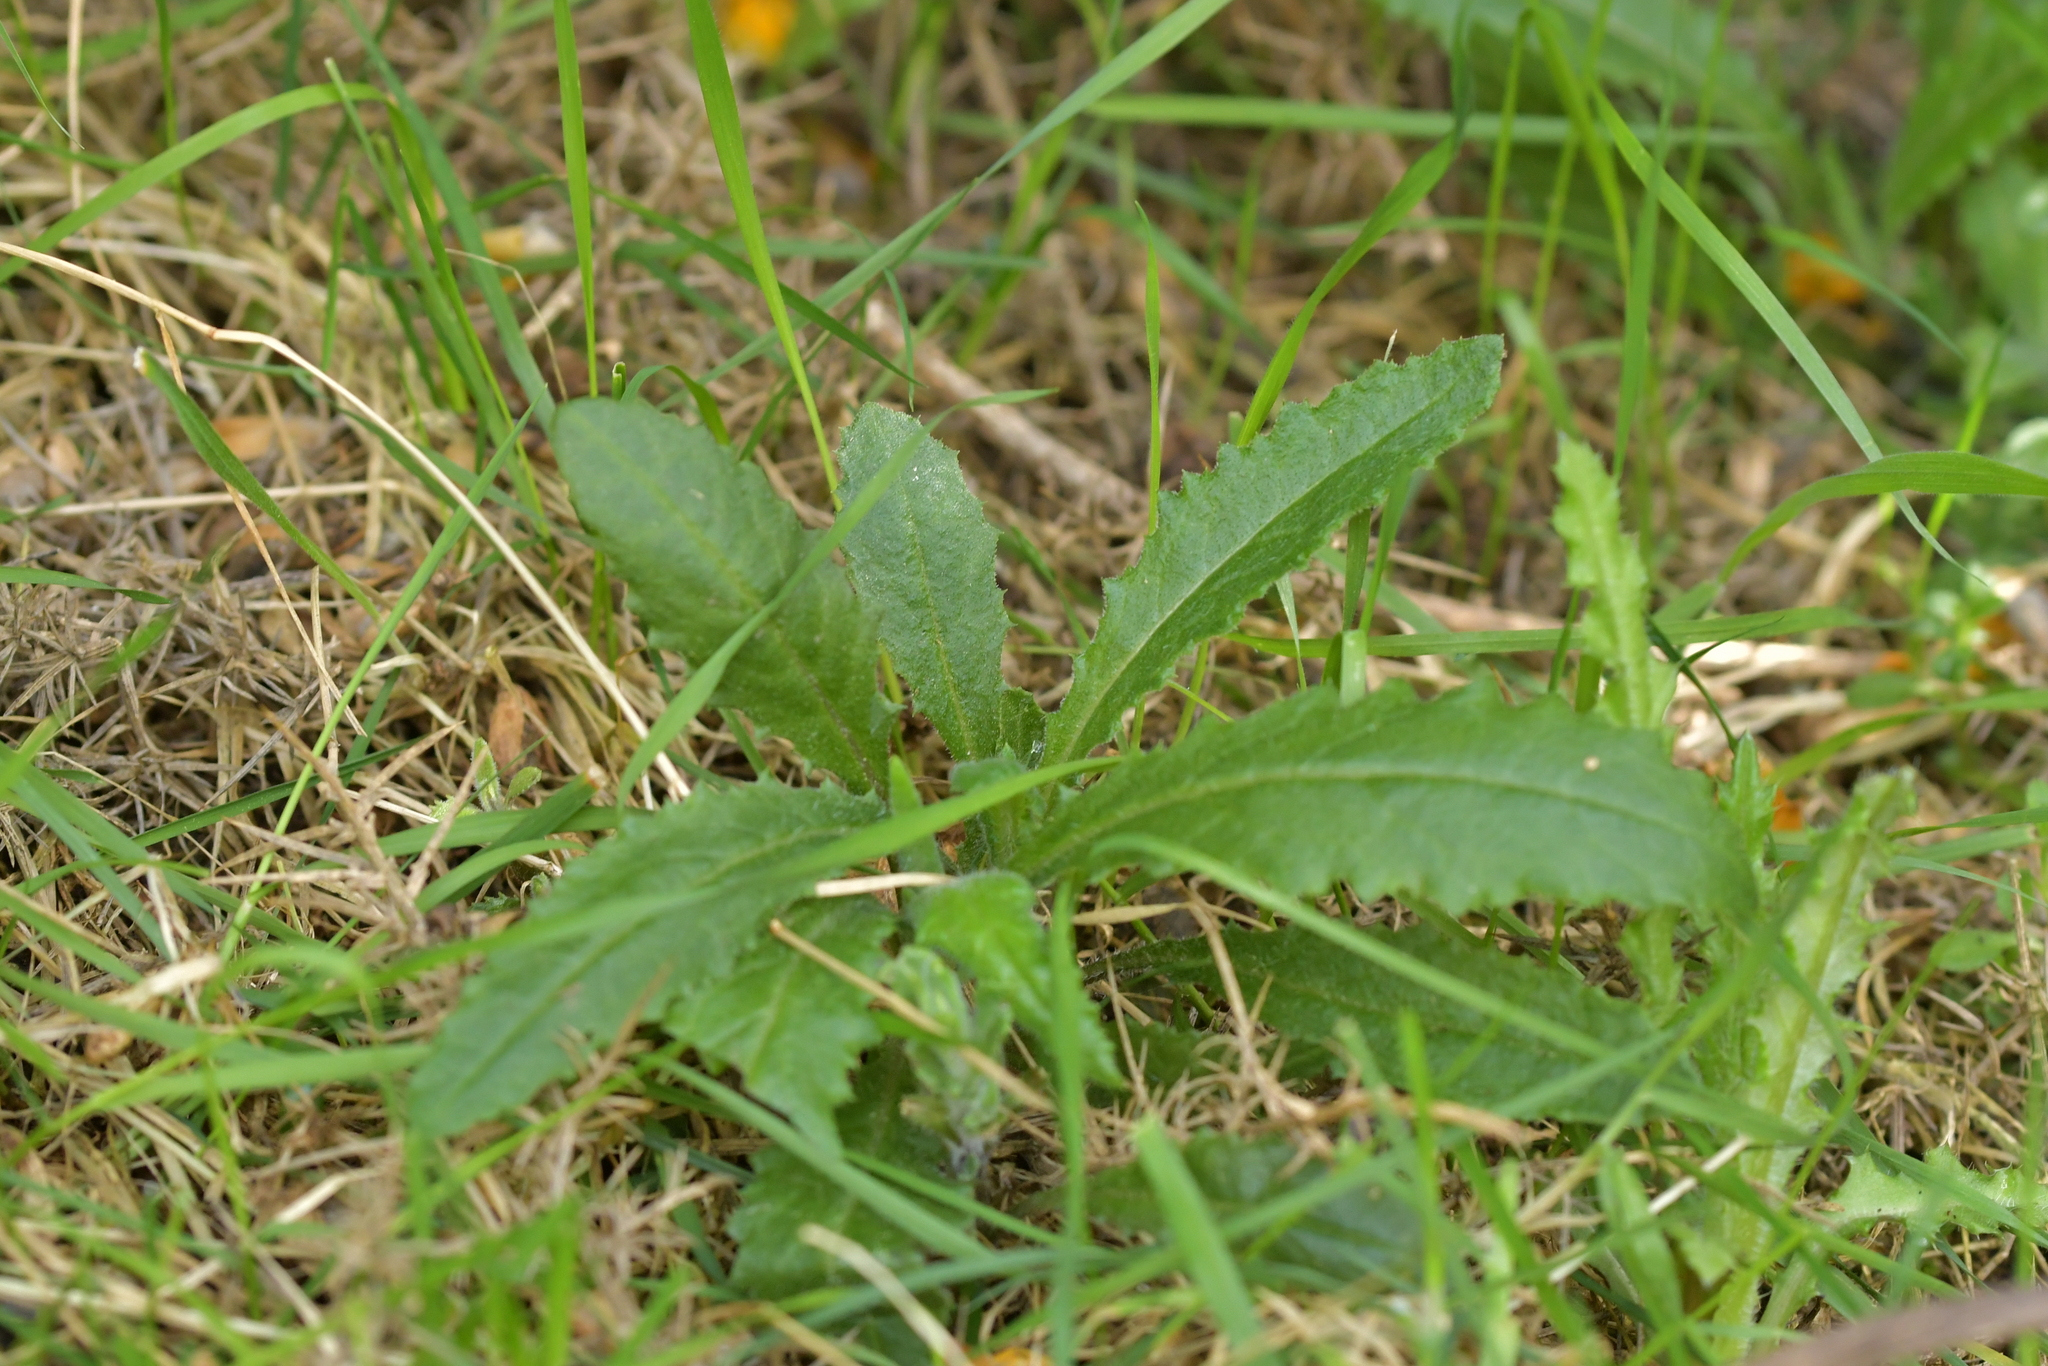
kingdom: Plantae
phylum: Tracheophyta
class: Magnoliopsida
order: Asterales
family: Asteraceae
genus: Senecio
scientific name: Senecio minimus
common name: Toothed fireweed
